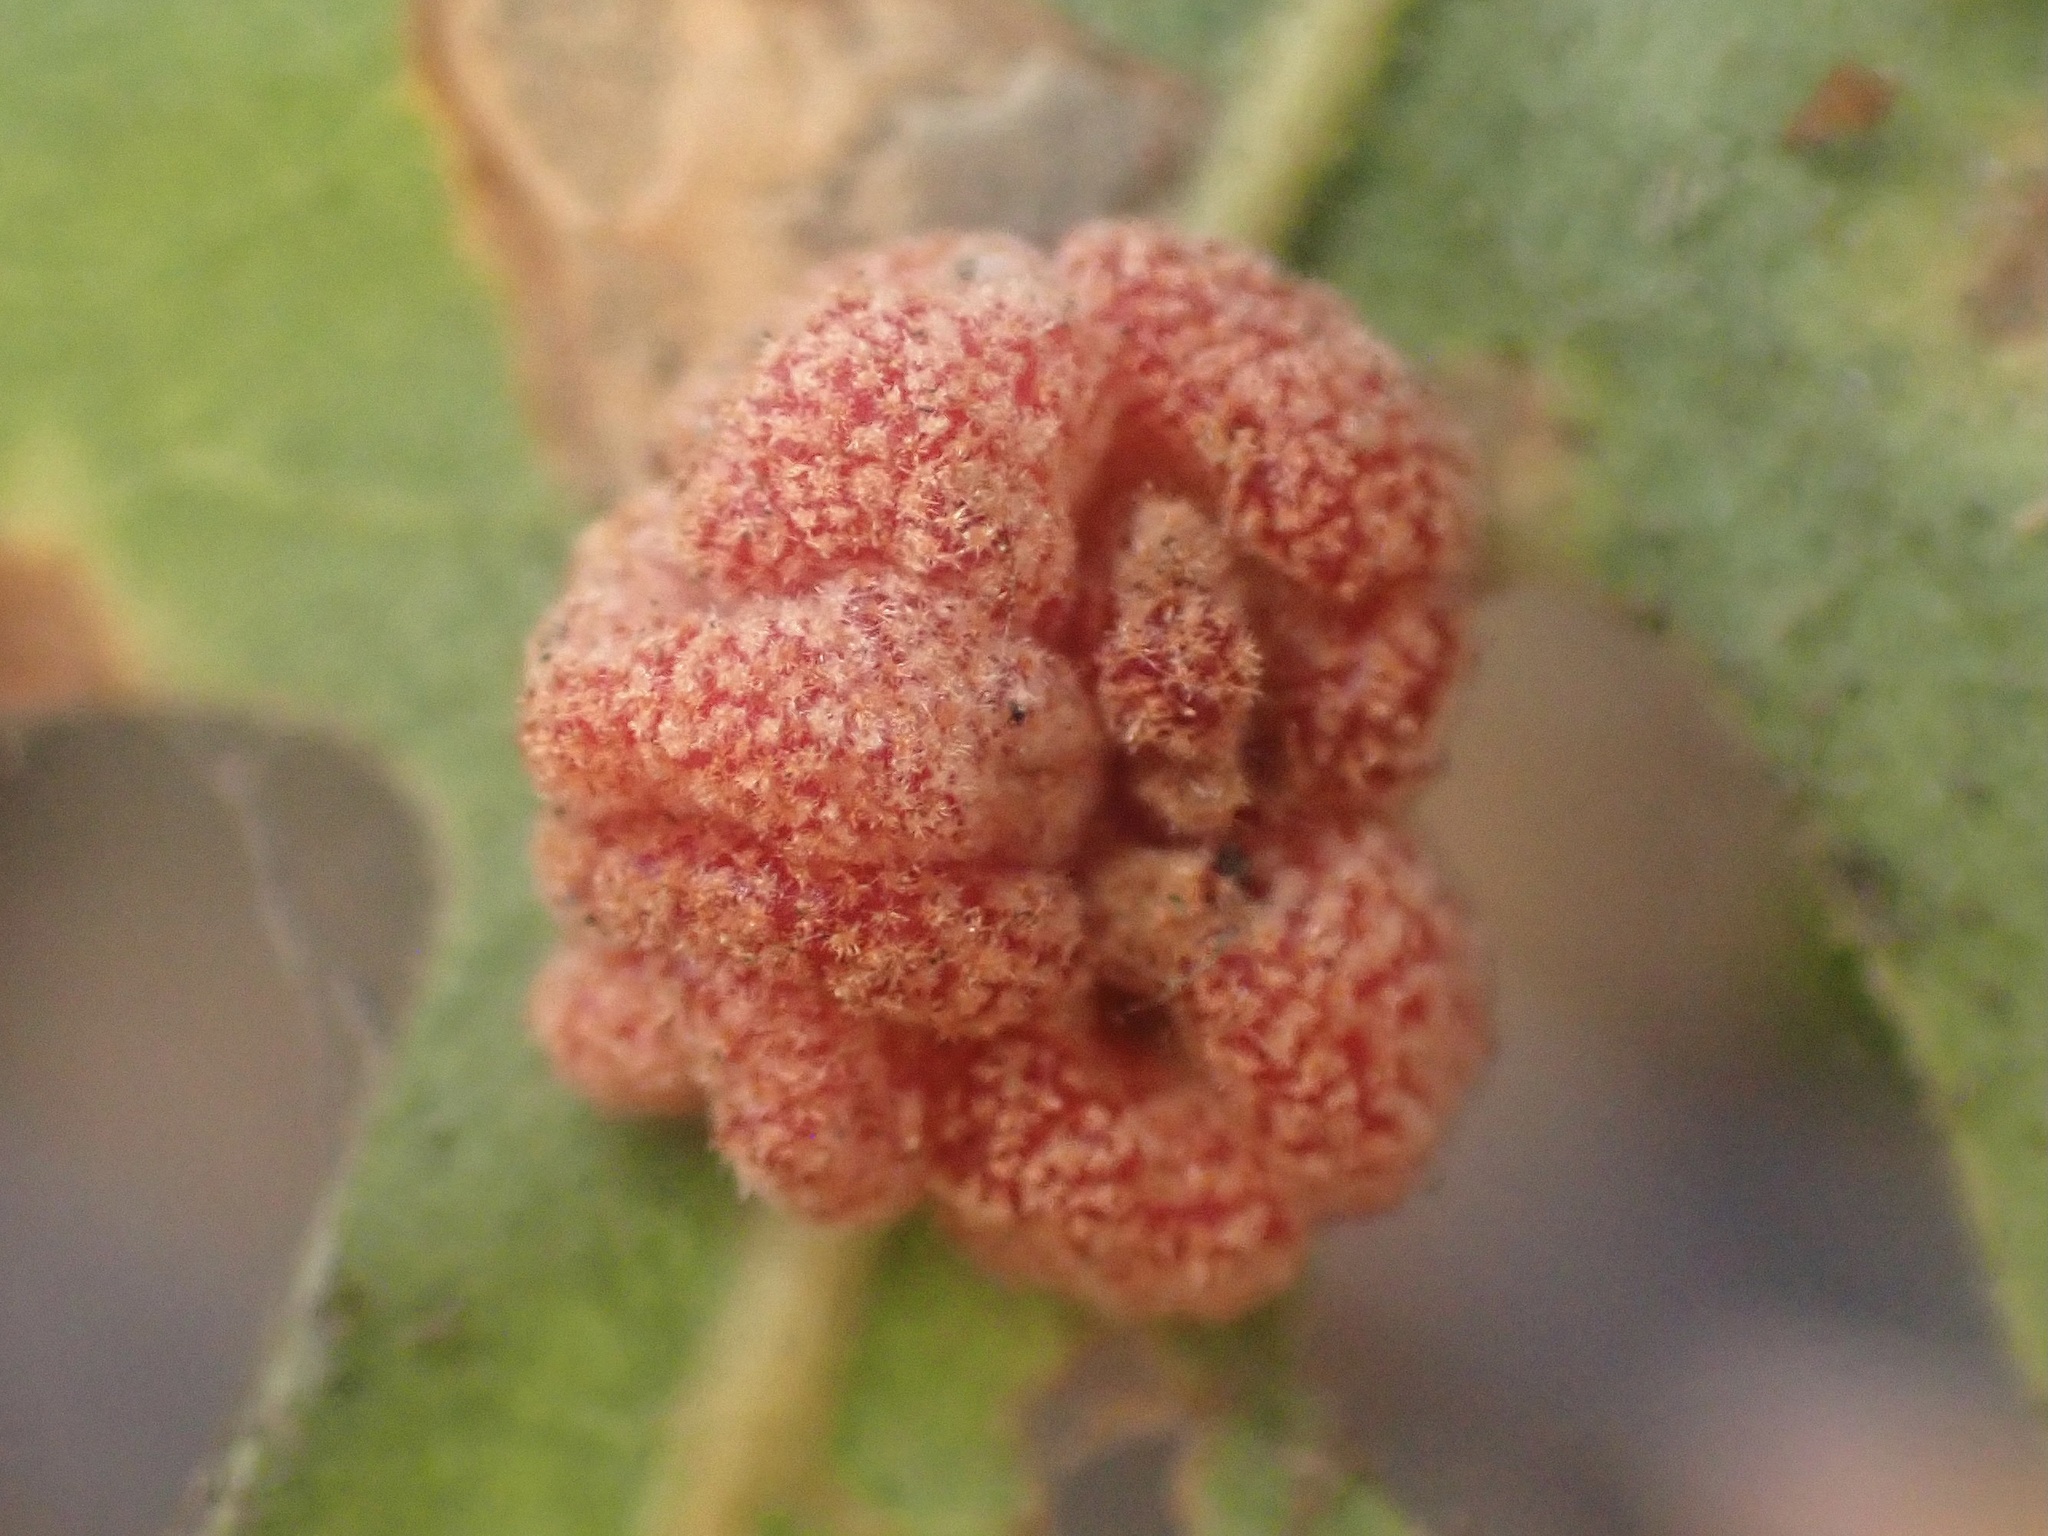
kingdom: Animalia
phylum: Arthropoda
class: Insecta
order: Hymenoptera
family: Cynipidae
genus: Andricus
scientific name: Andricus
